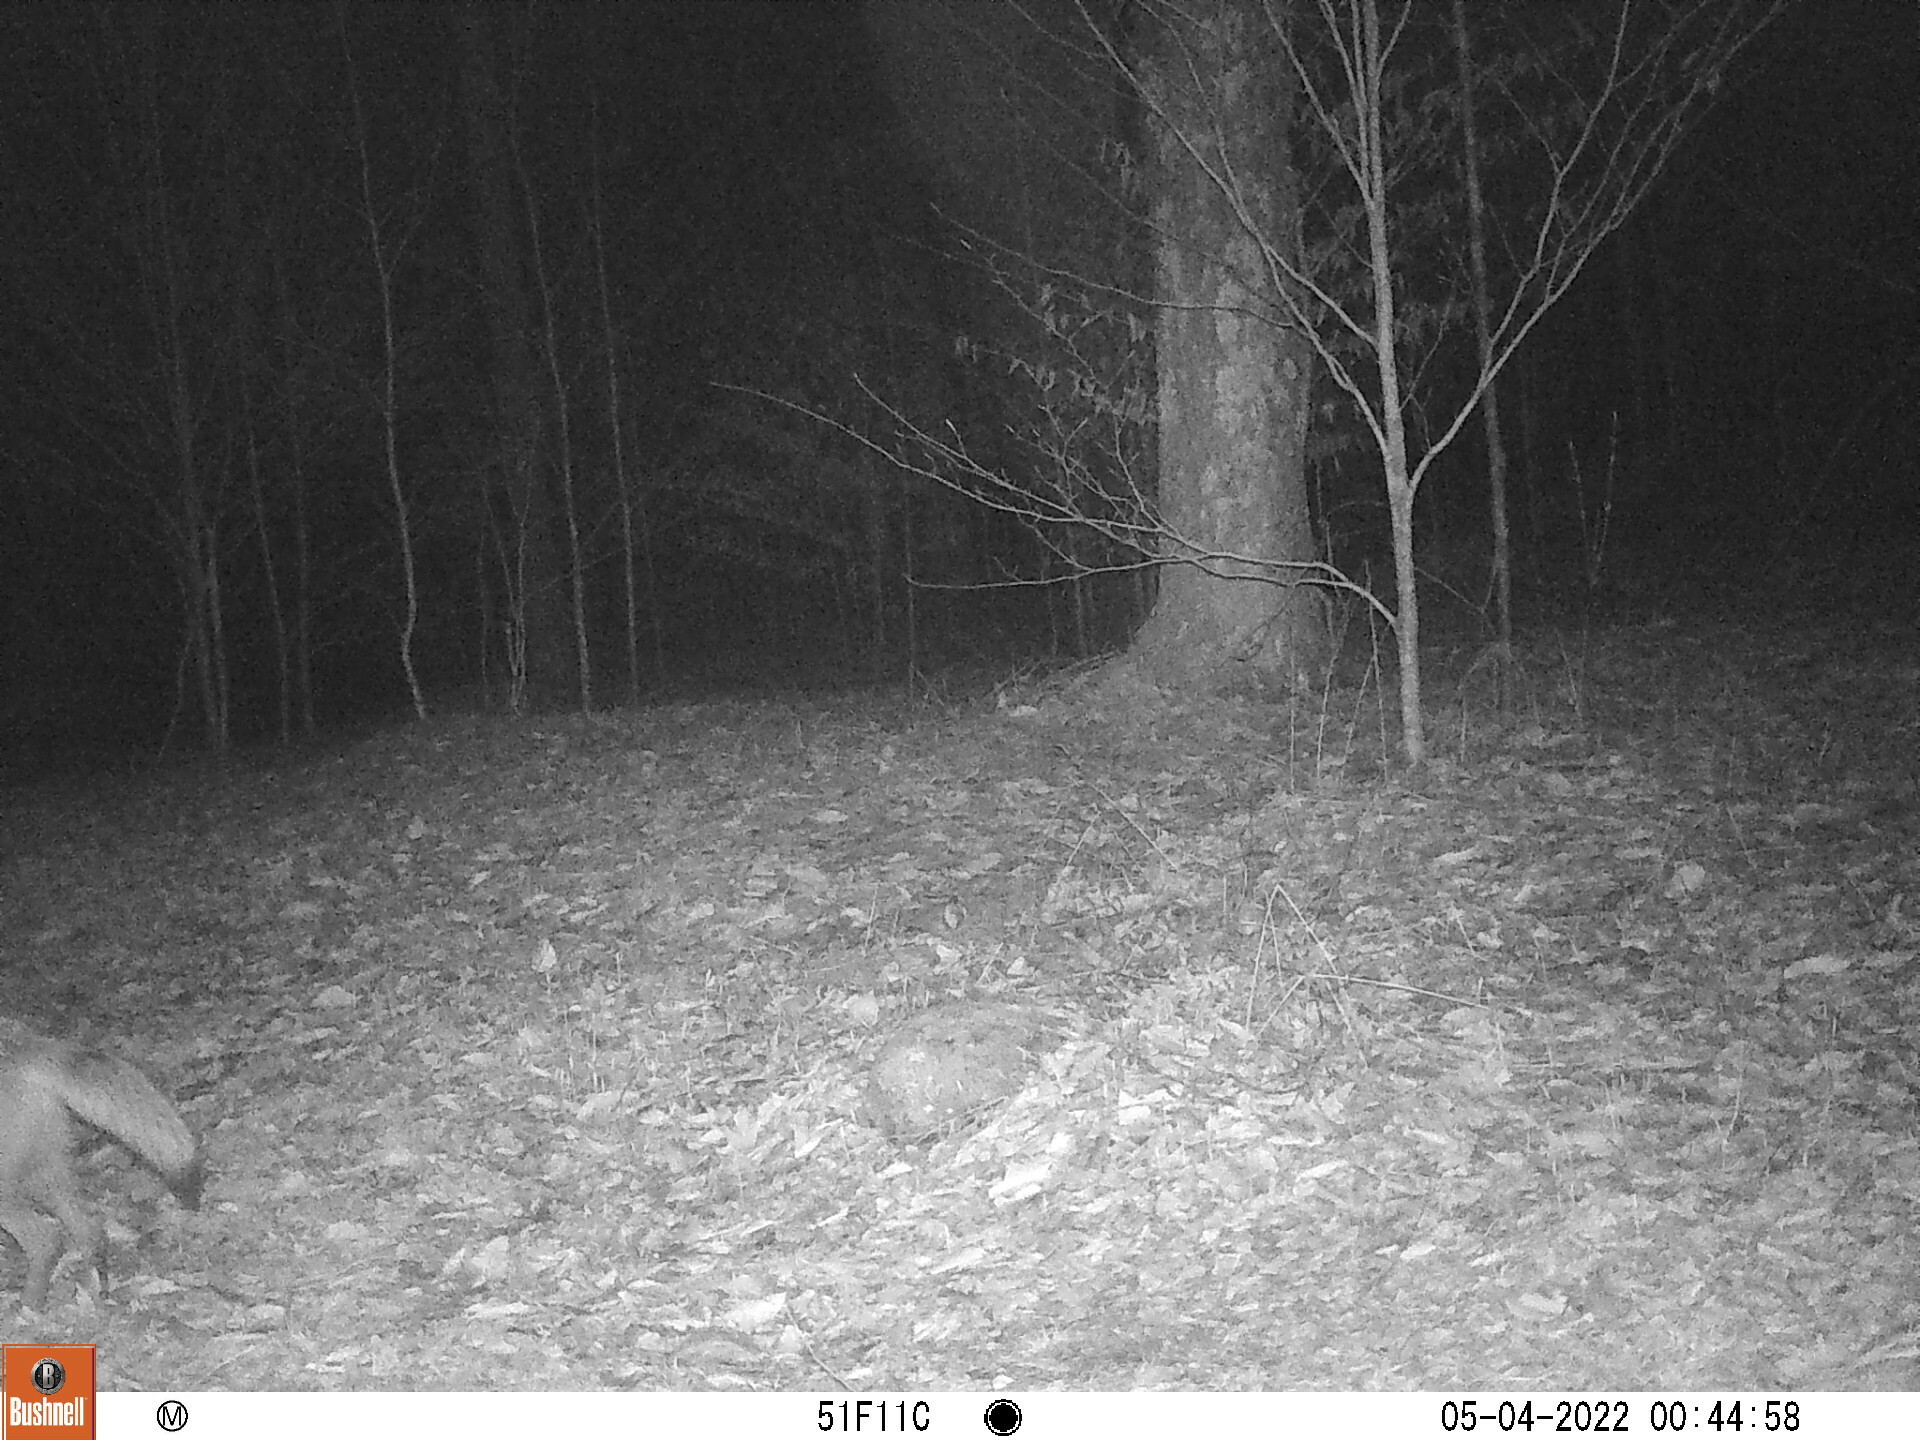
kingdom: Animalia
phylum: Chordata
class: Mammalia
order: Carnivora
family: Canidae
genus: Canis
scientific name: Canis latrans
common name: Coyote
